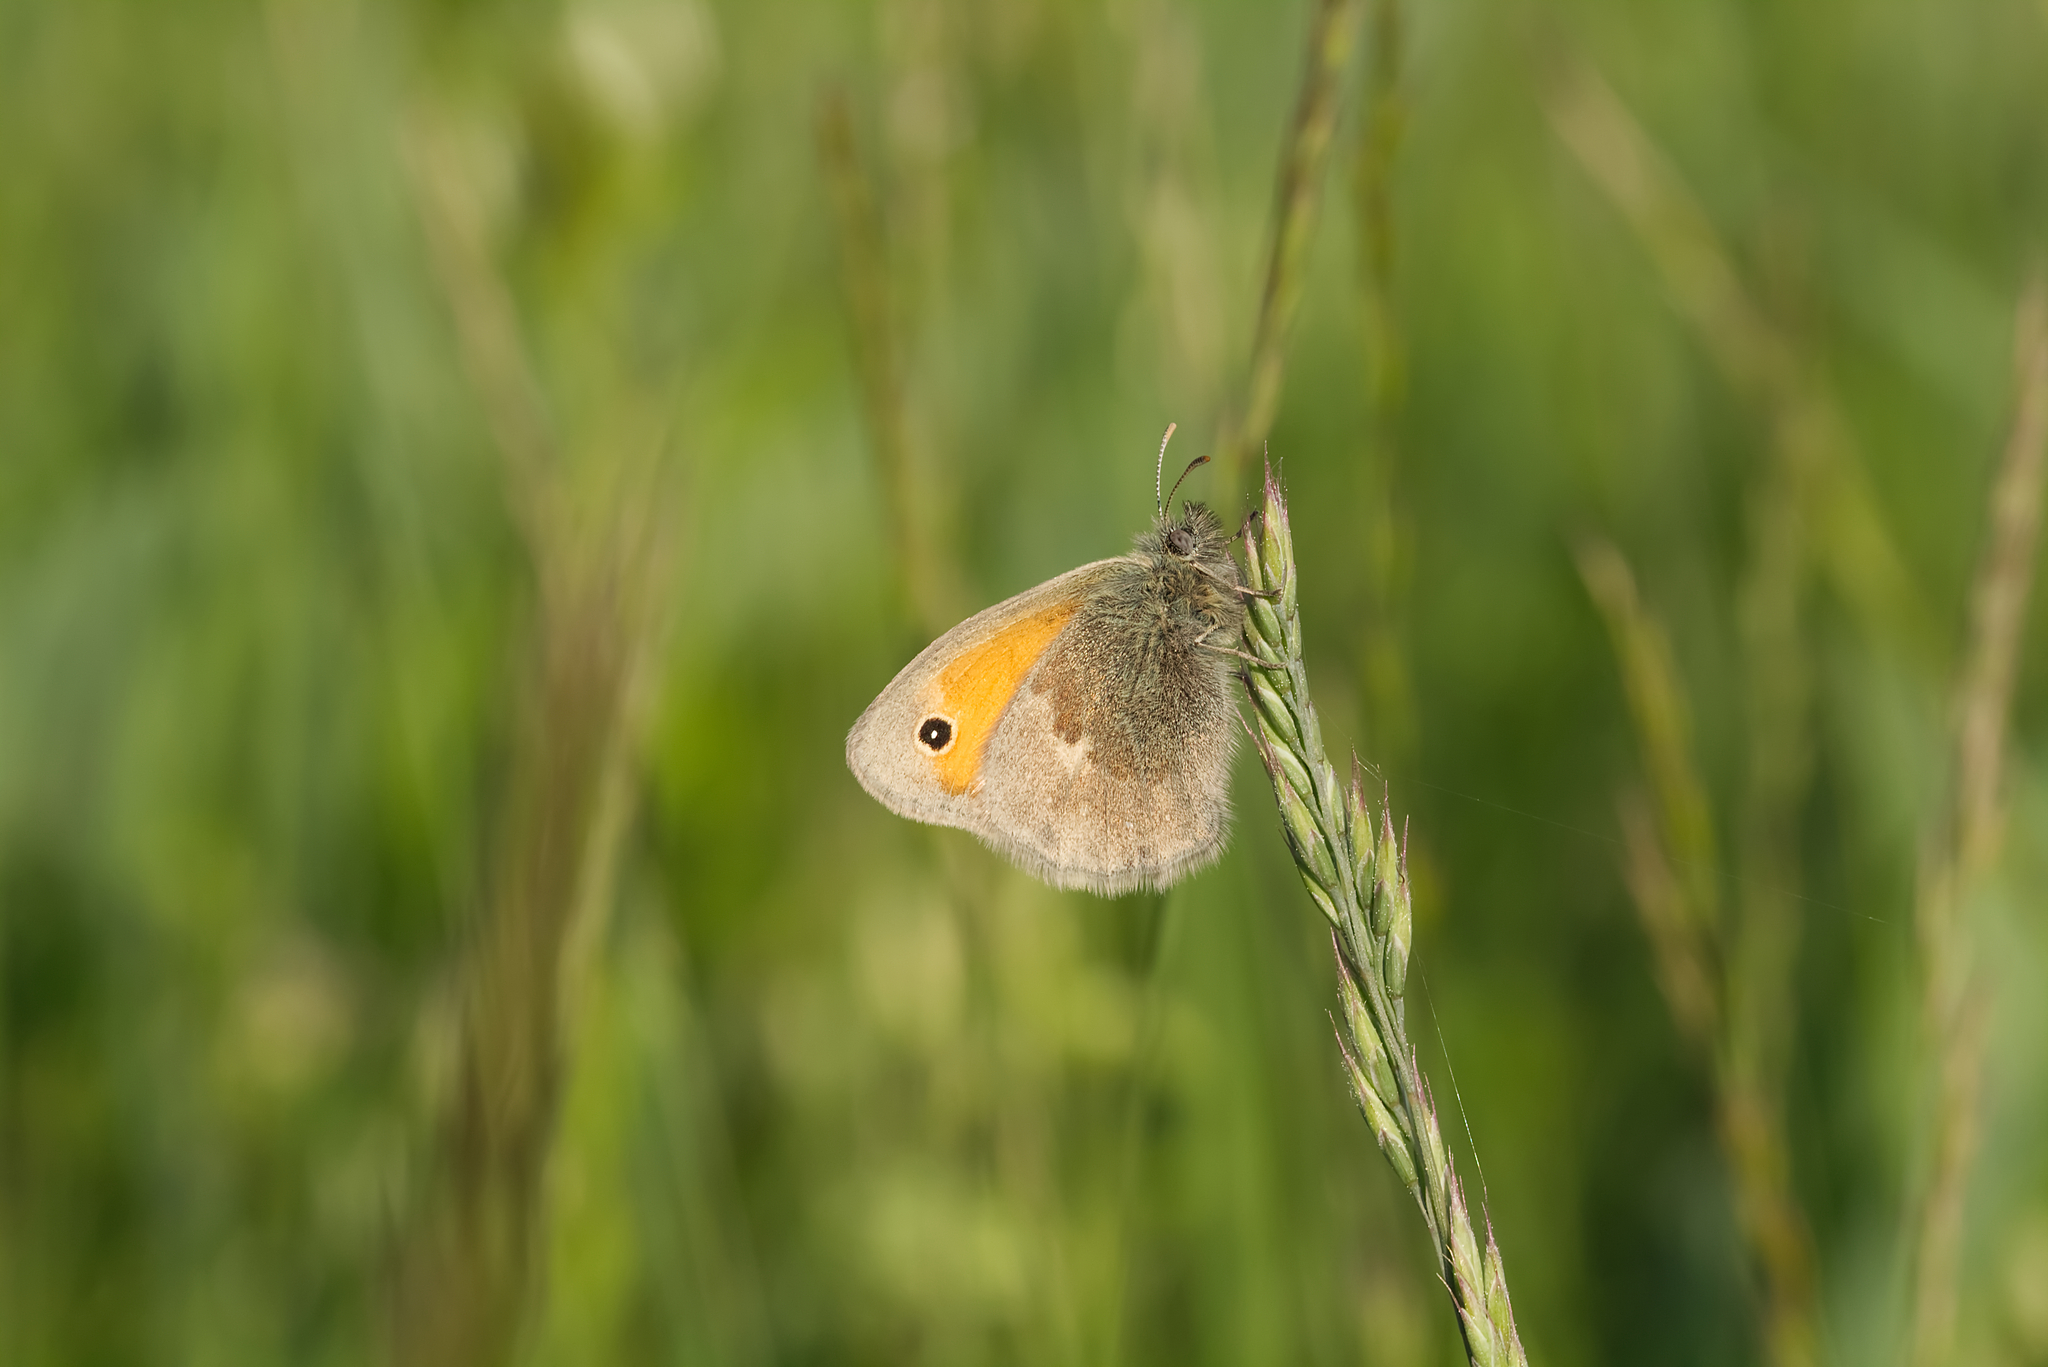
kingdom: Animalia
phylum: Arthropoda
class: Insecta
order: Lepidoptera
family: Nymphalidae
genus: Coenonympha
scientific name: Coenonympha pamphilus
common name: Small heath
